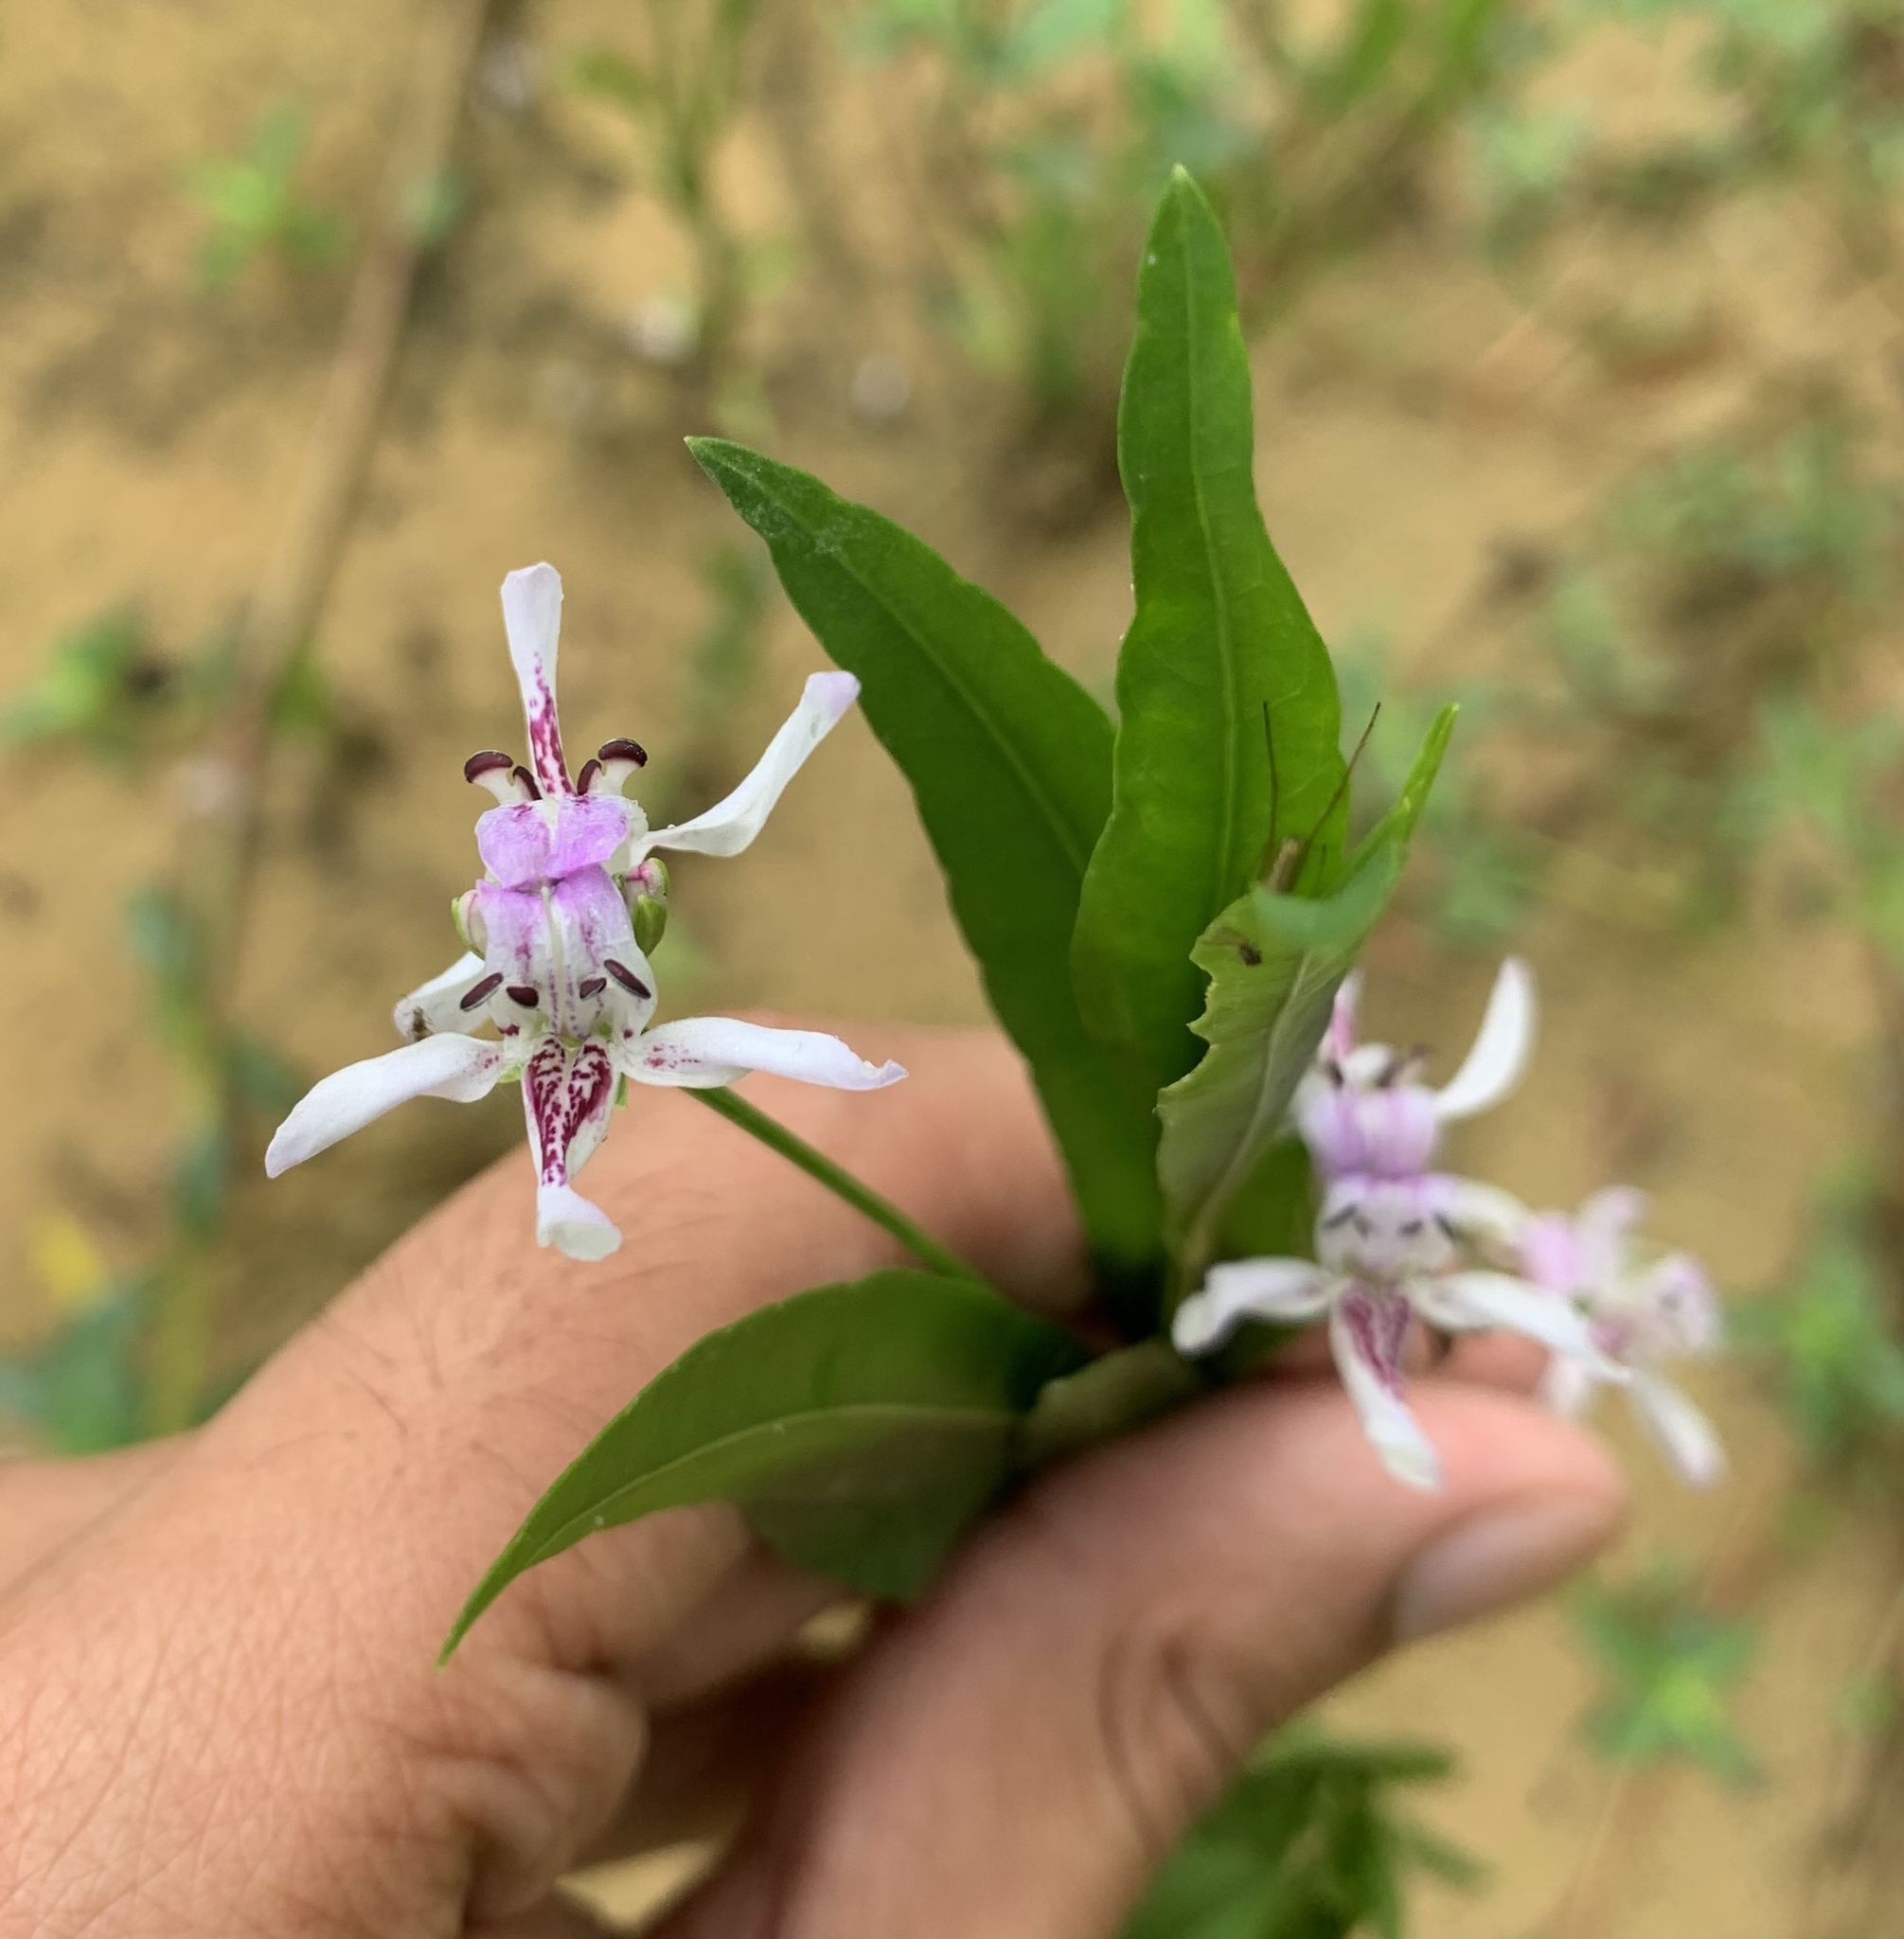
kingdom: Plantae
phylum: Tracheophyta
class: Magnoliopsida
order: Lamiales
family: Acanthaceae
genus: Dianthera
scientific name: Dianthera americana
